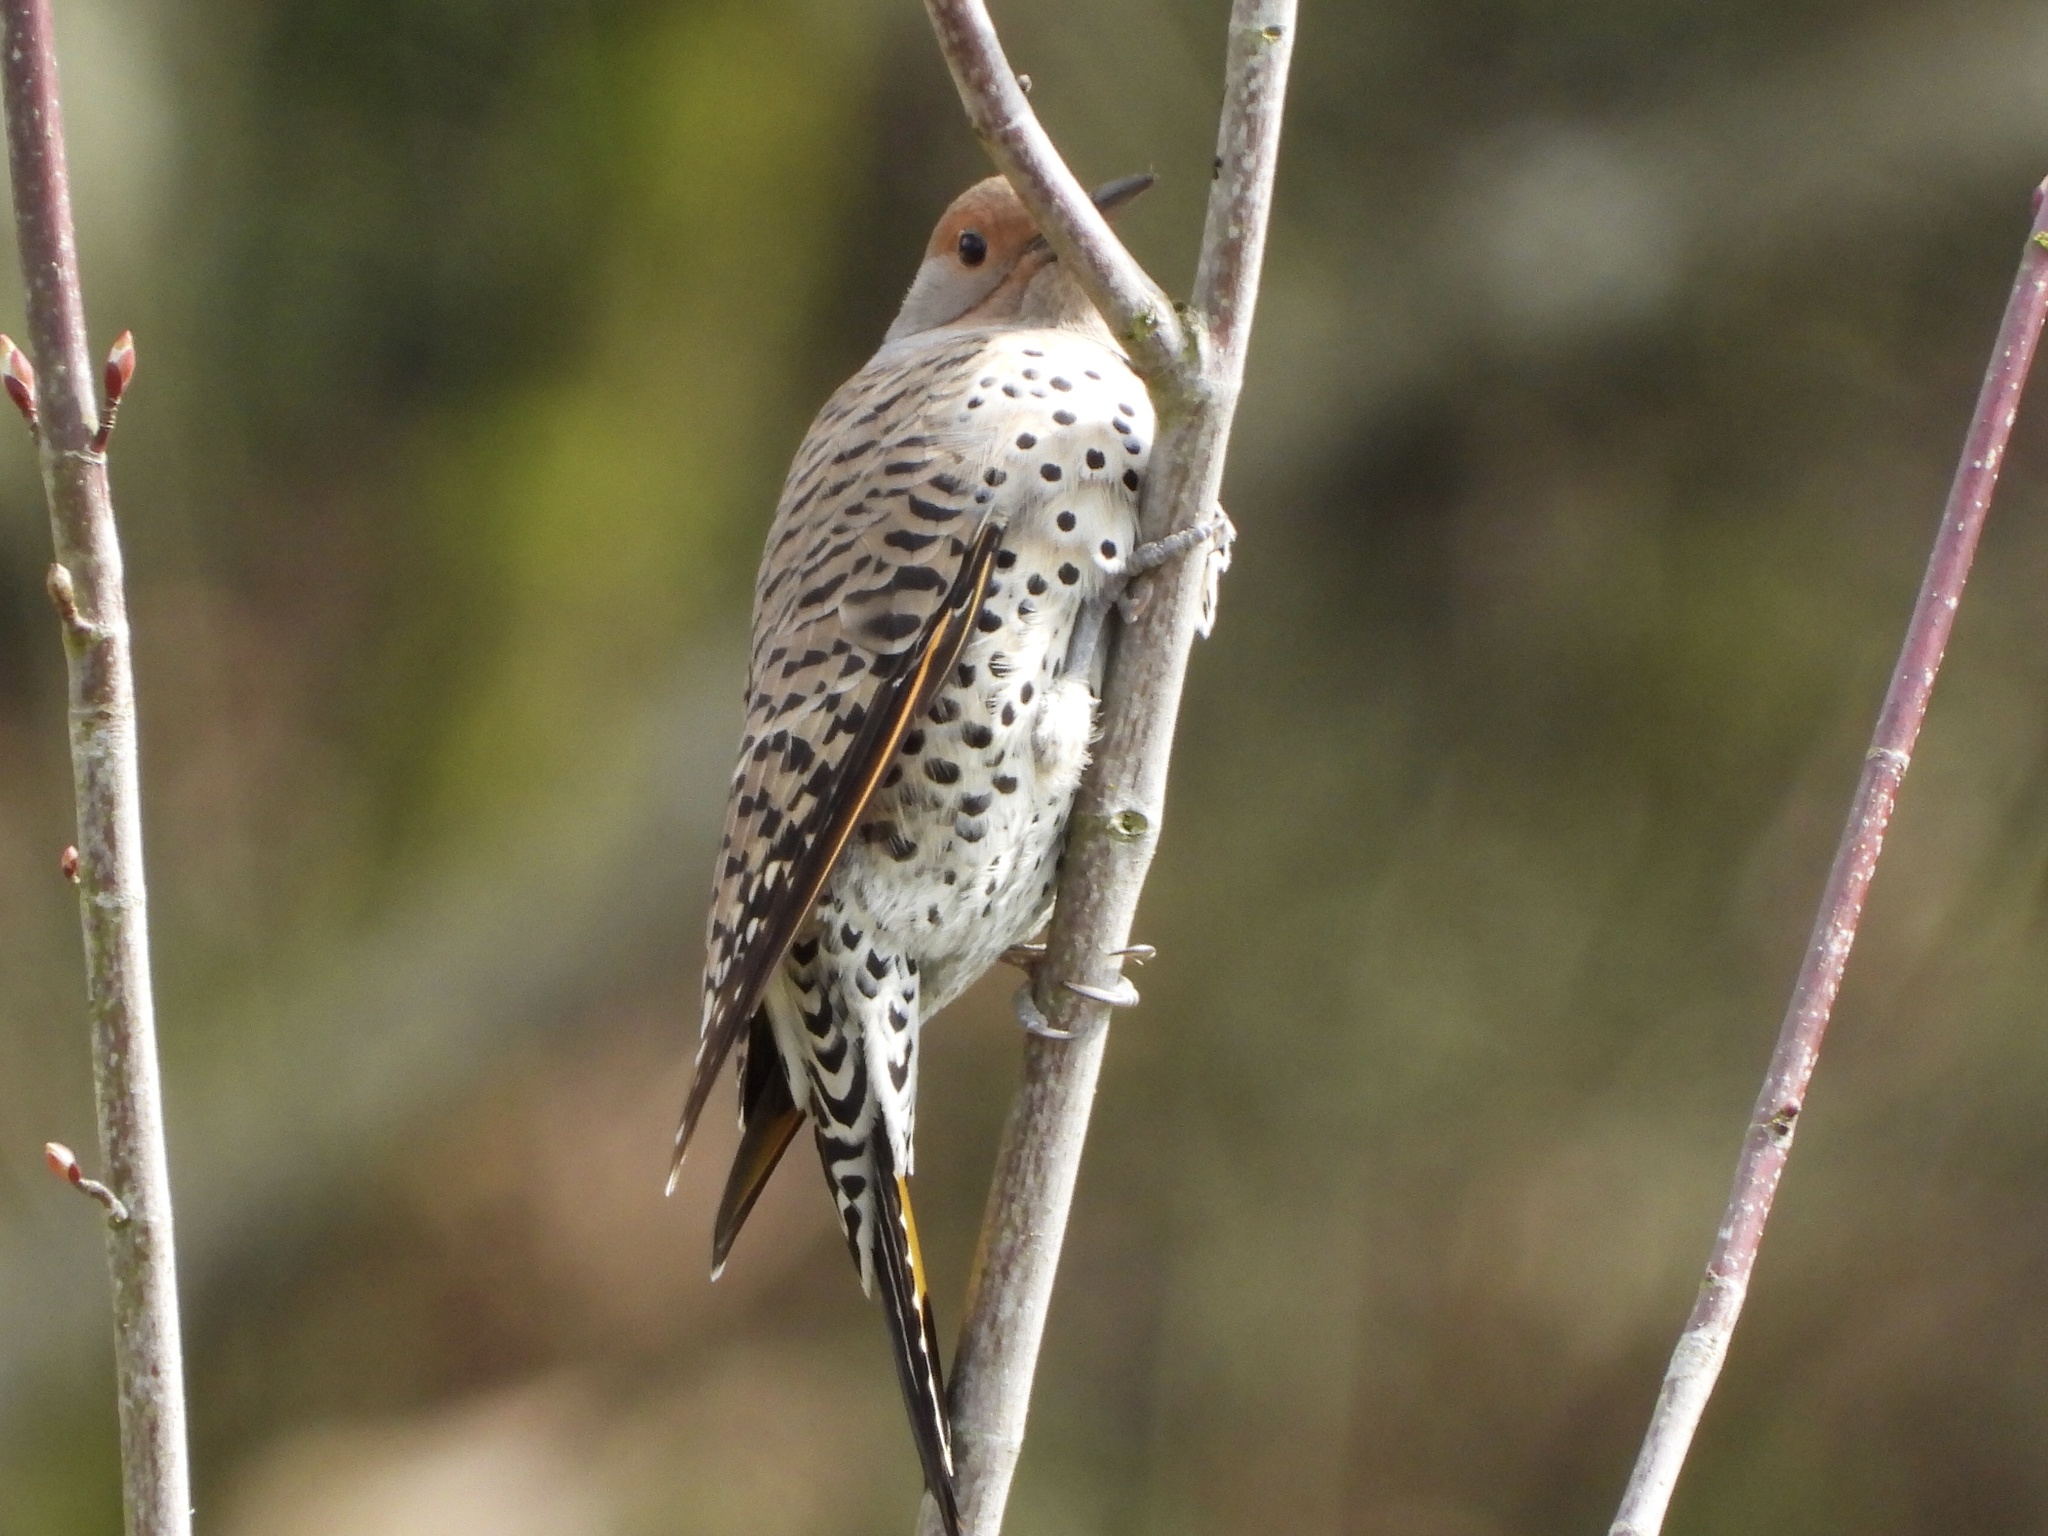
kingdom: Animalia
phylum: Chordata
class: Aves
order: Piciformes
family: Picidae
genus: Colaptes
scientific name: Colaptes
